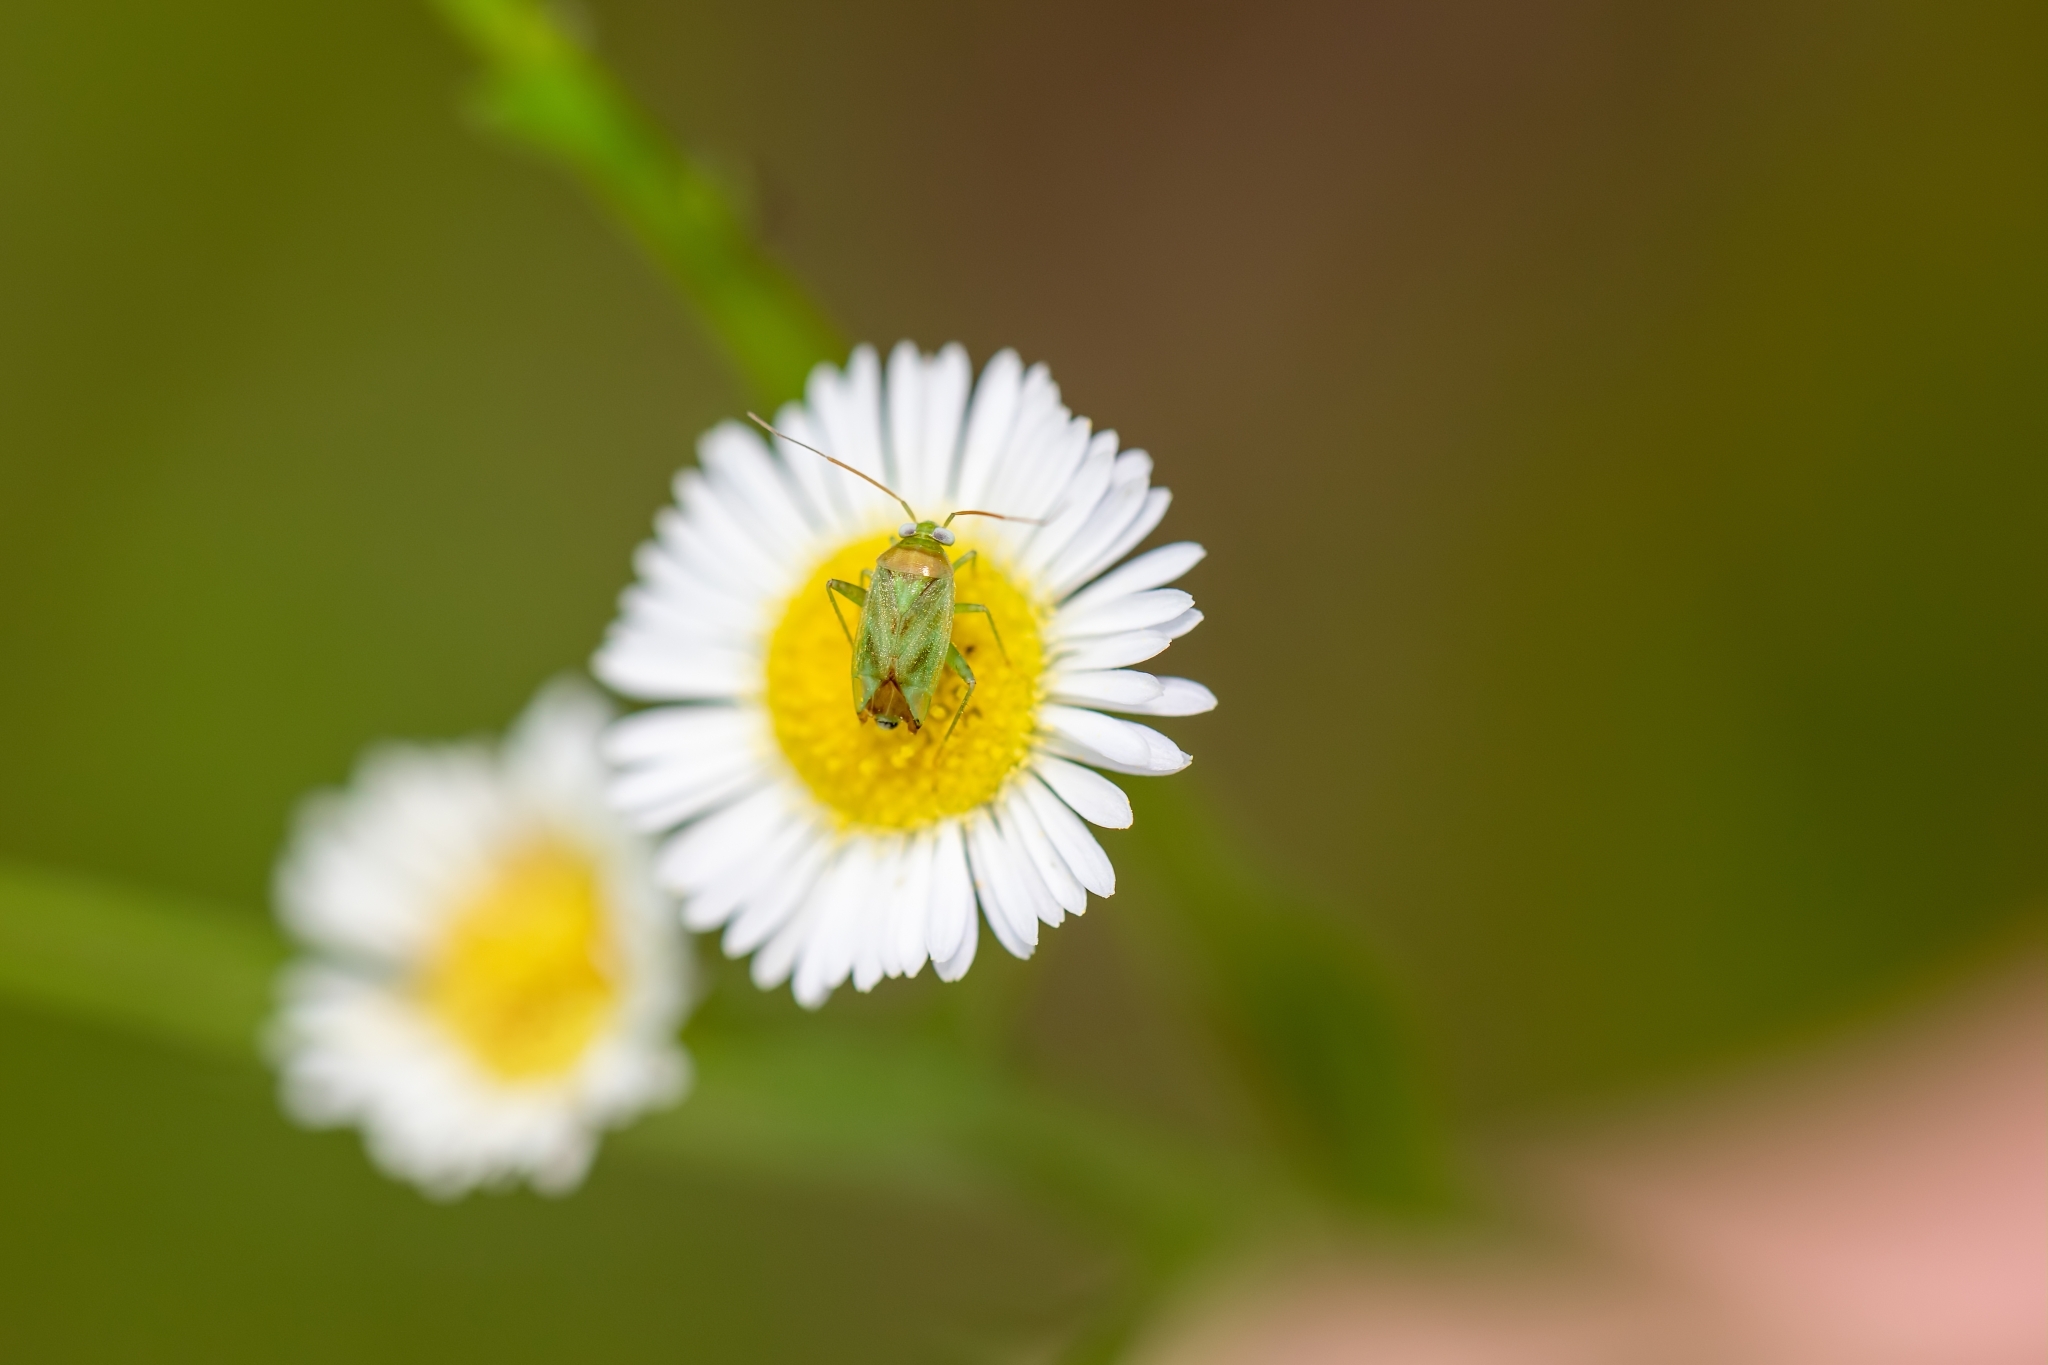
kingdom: Animalia
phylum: Arthropoda
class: Insecta
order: Hemiptera
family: Miridae
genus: Taylorilygus
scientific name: Taylorilygus apicalis
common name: Plant bug
